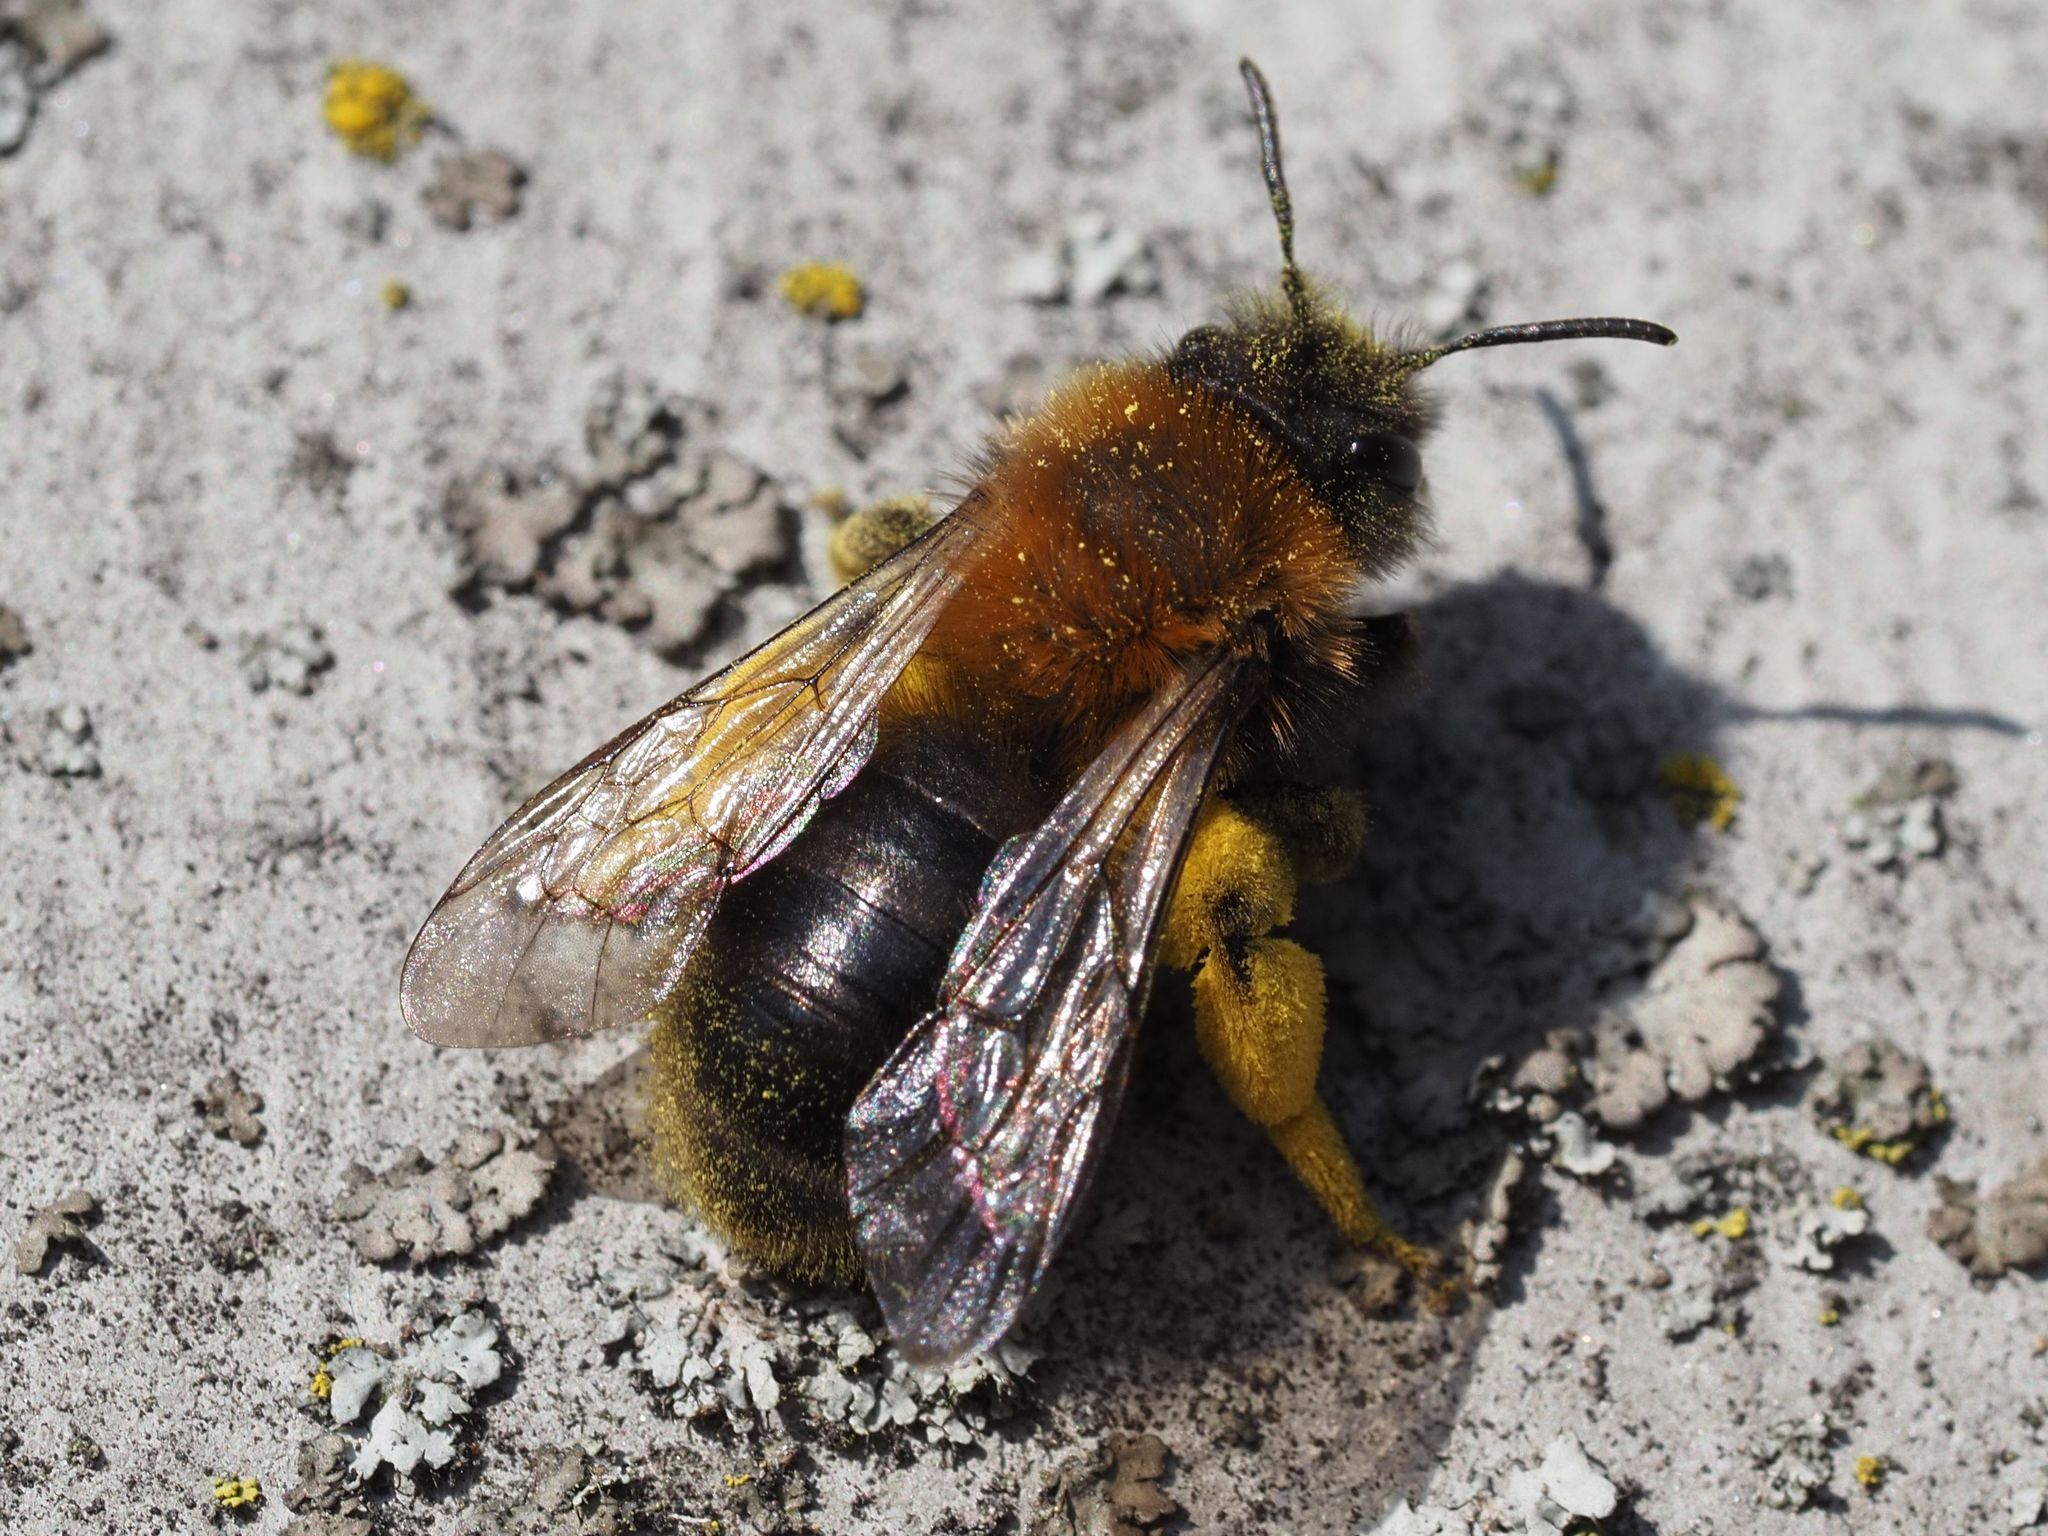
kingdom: Animalia
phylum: Arthropoda
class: Insecta
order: Hymenoptera
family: Andrenidae
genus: Andrena
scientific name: Andrena clarkella
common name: Clarke's mining bee
